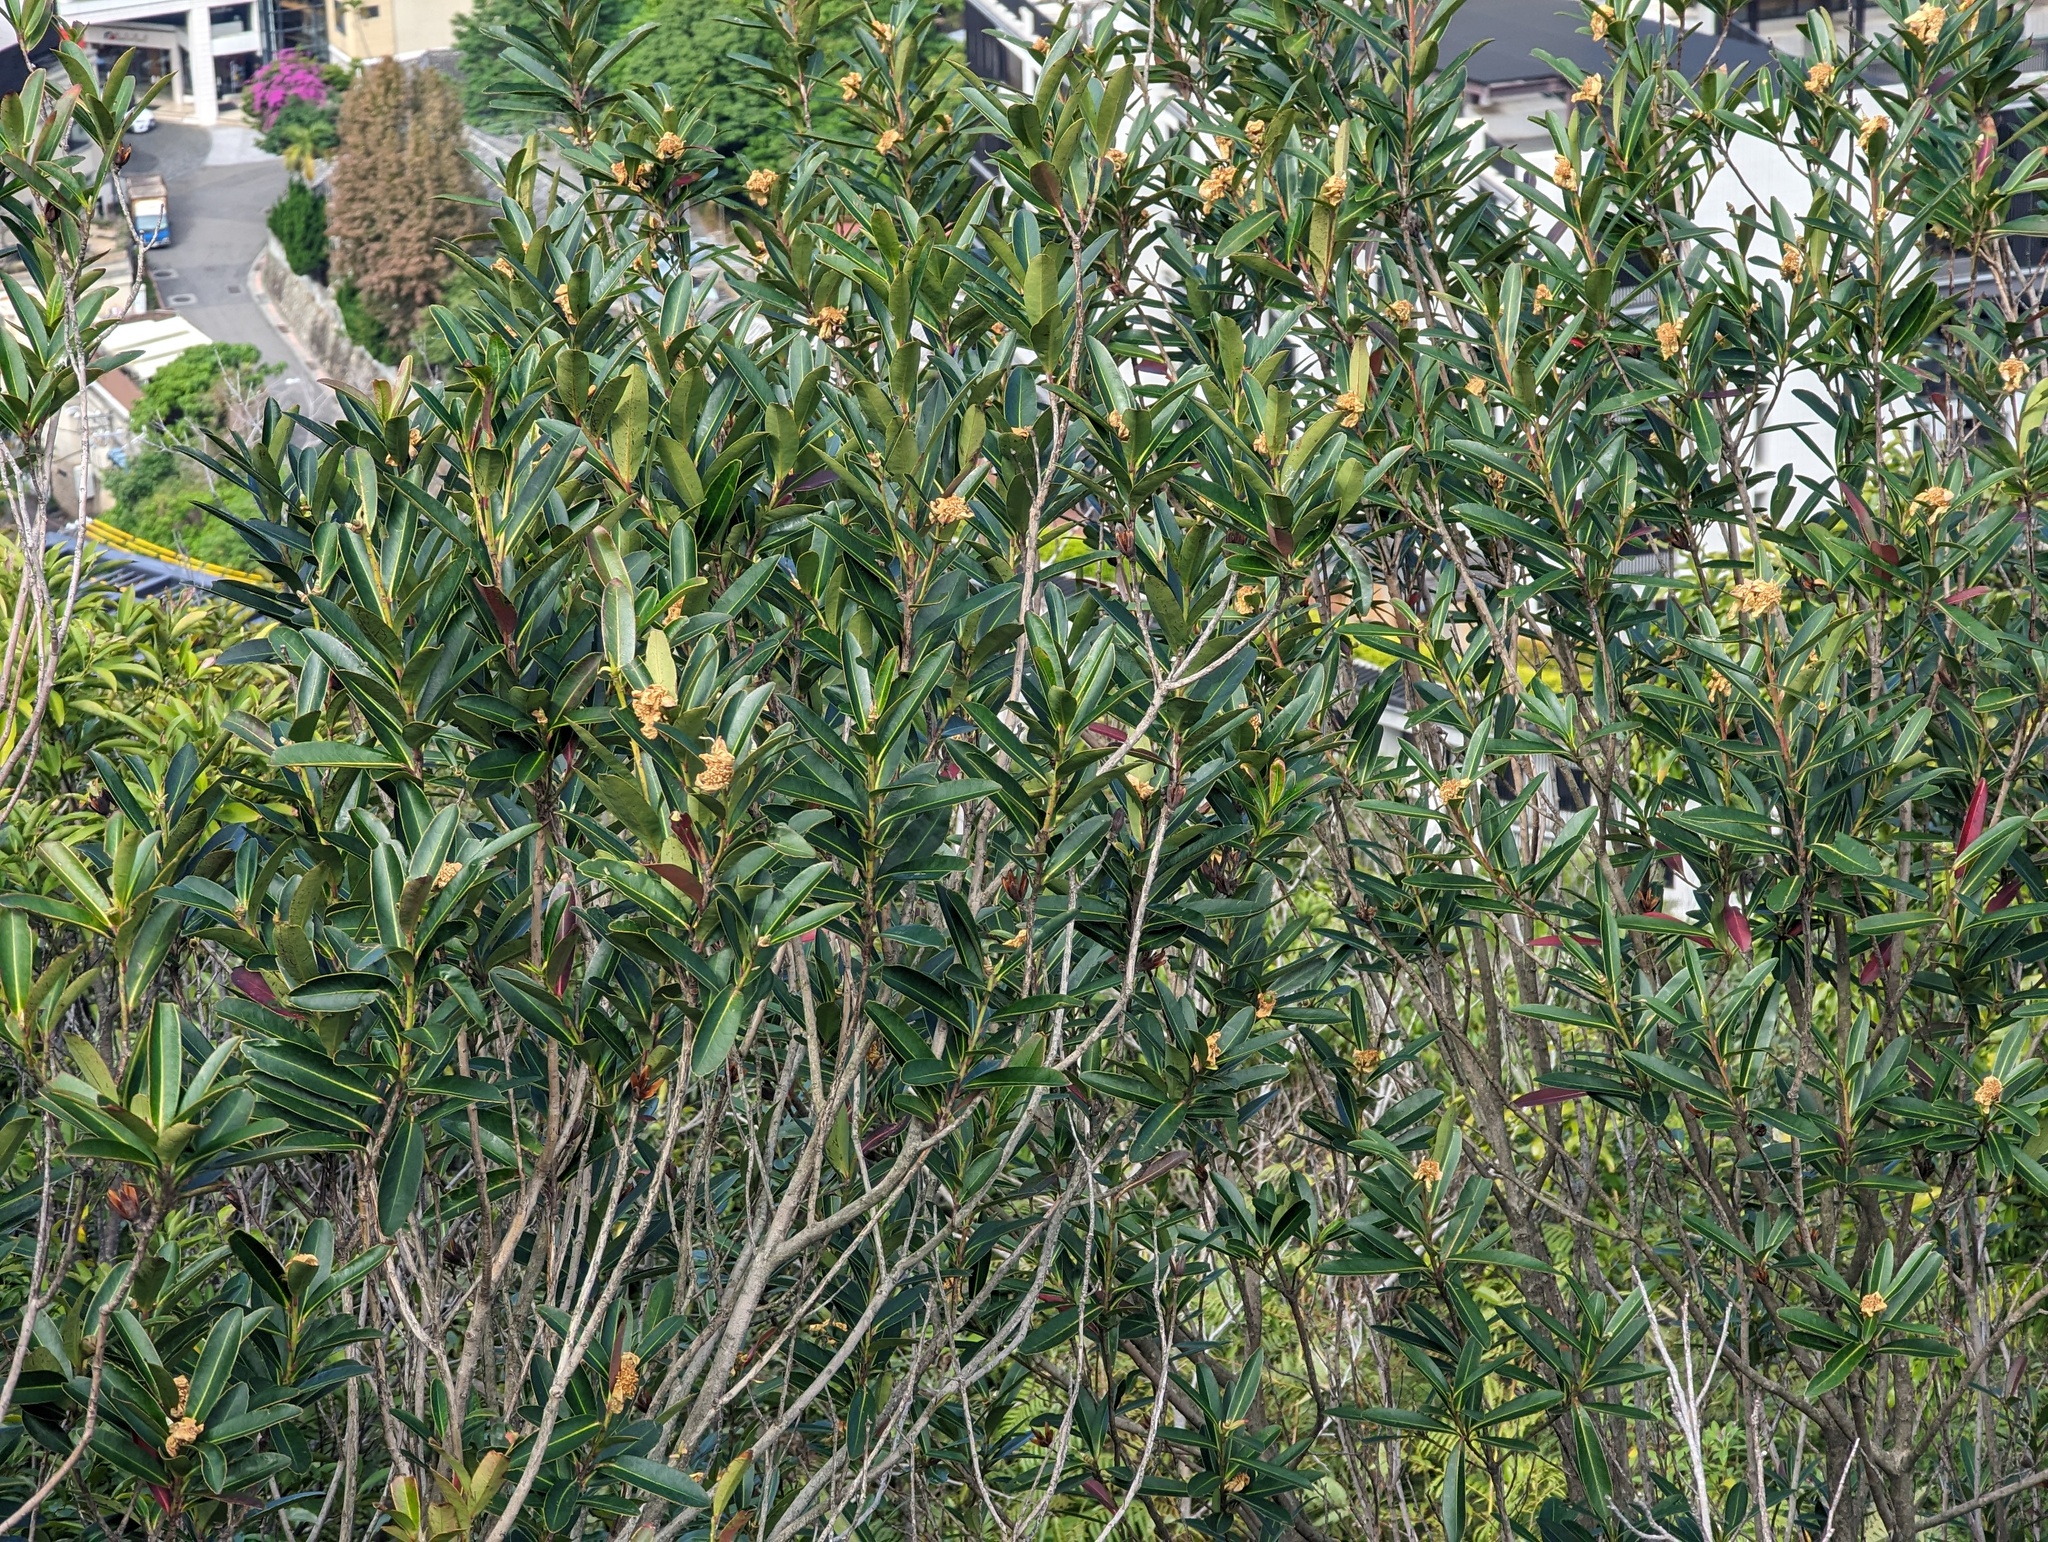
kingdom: Plantae
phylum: Tracheophyta
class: Magnoliopsida
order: Ericales
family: Theaceae
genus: Polyspora
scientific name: Polyspora axillaris
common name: Fried egg tree
